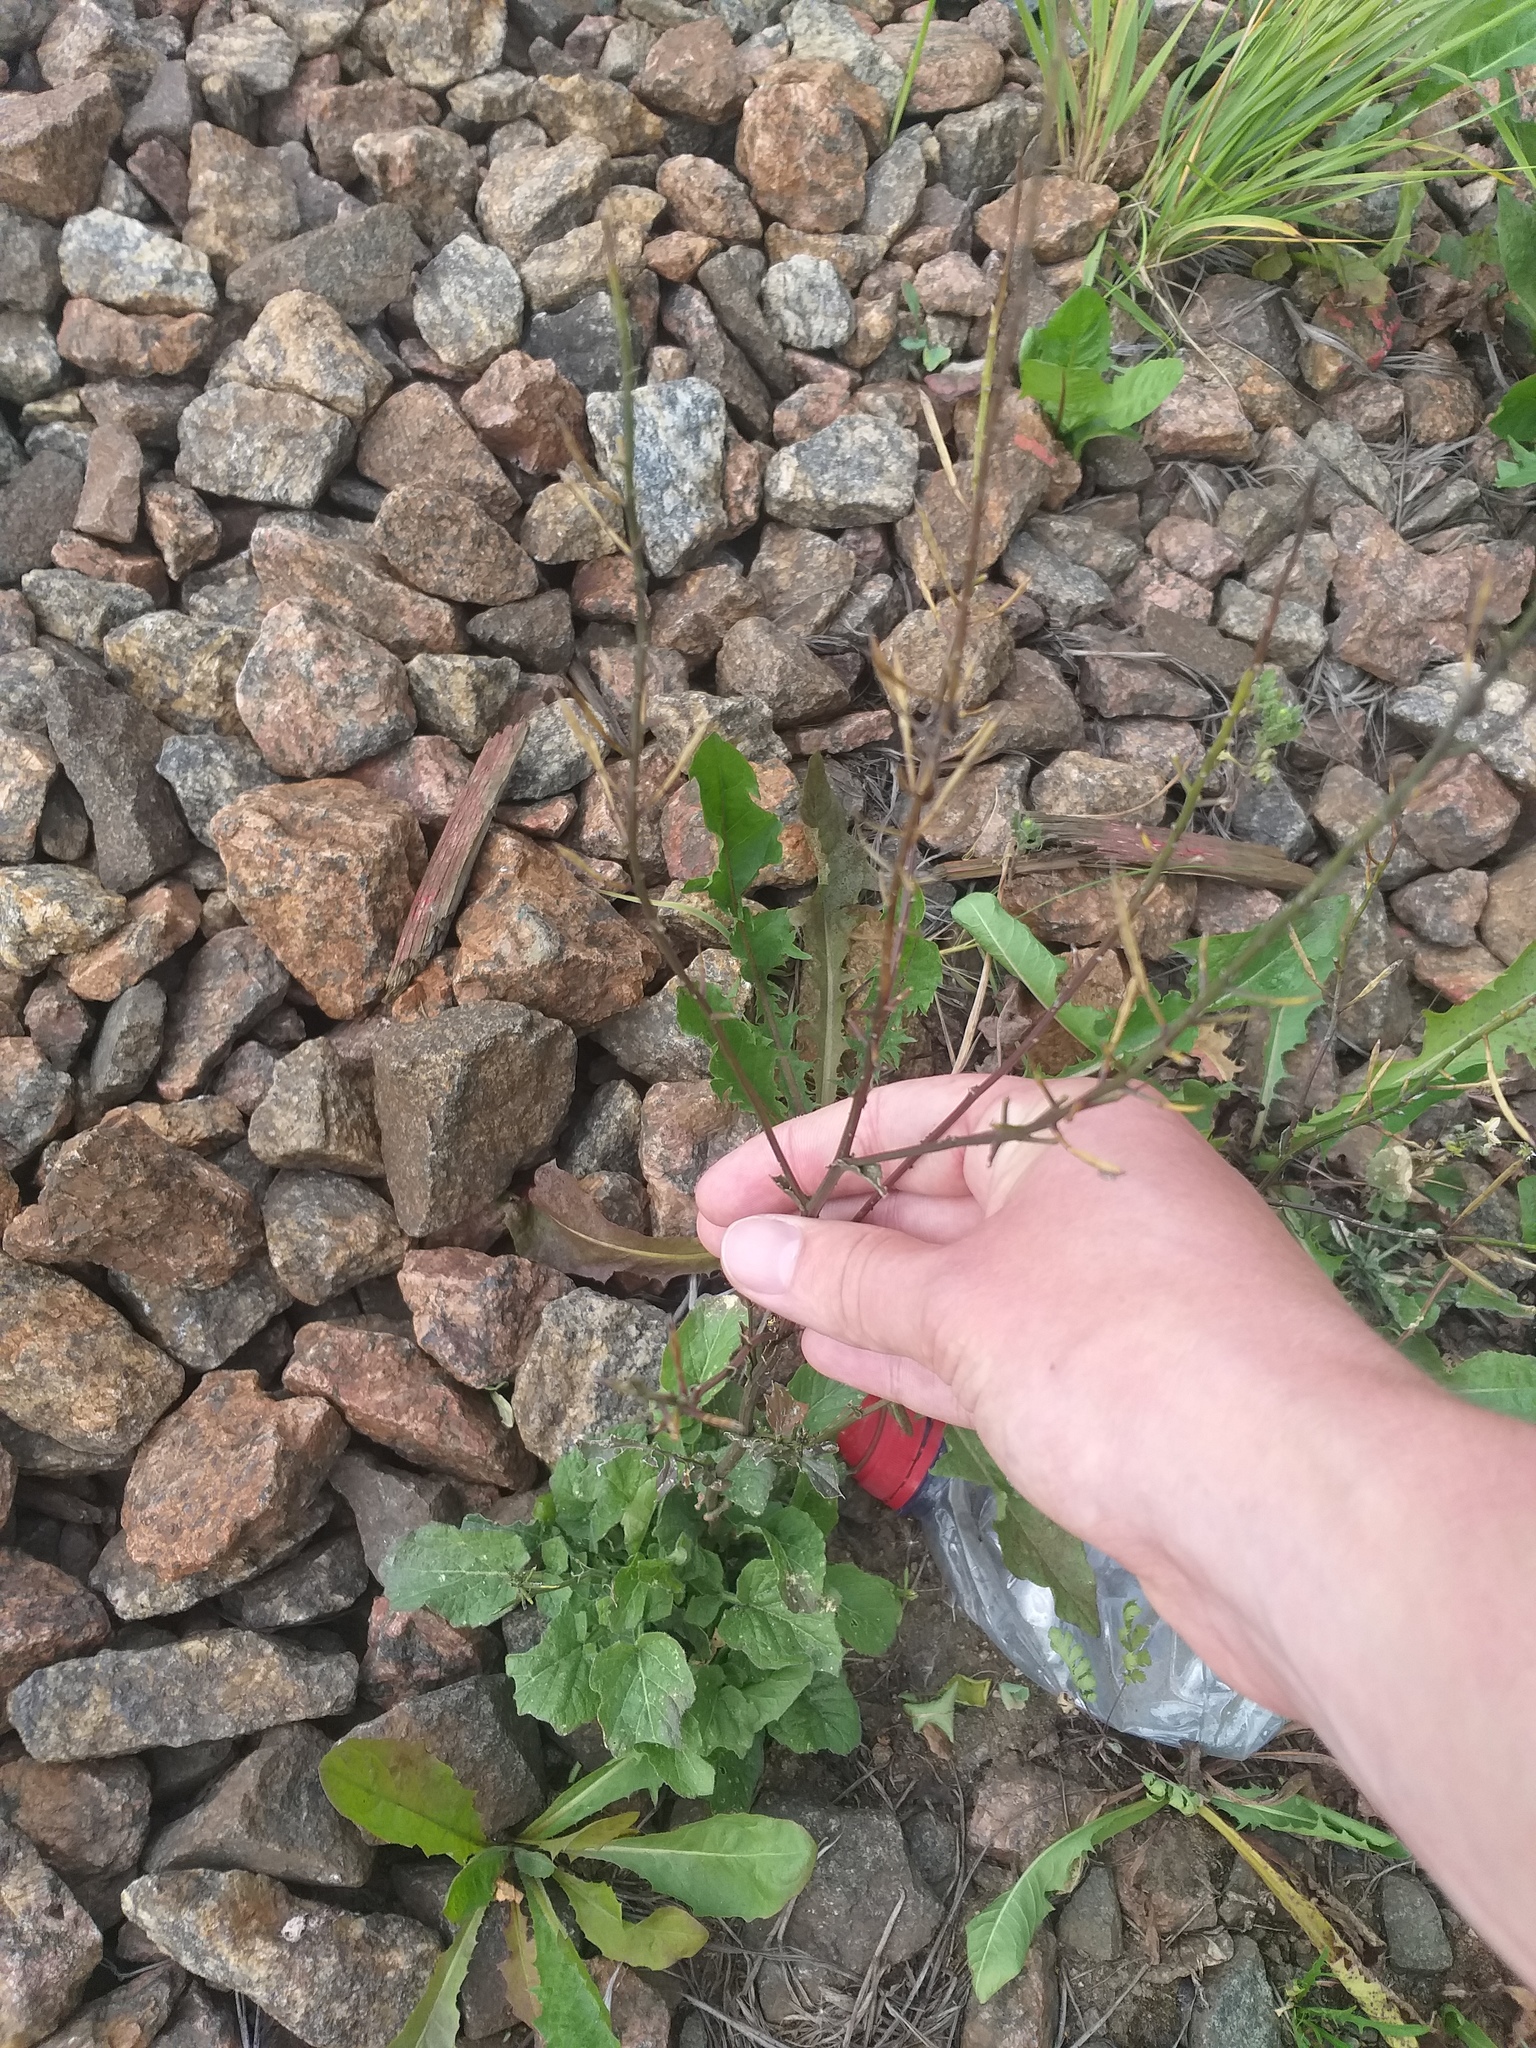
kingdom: Plantae
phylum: Tracheophyta
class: Magnoliopsida
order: Brassicales
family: Brassicaceae
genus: Barbarea
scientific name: Barbarea vulgaris
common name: Cressy-greens
